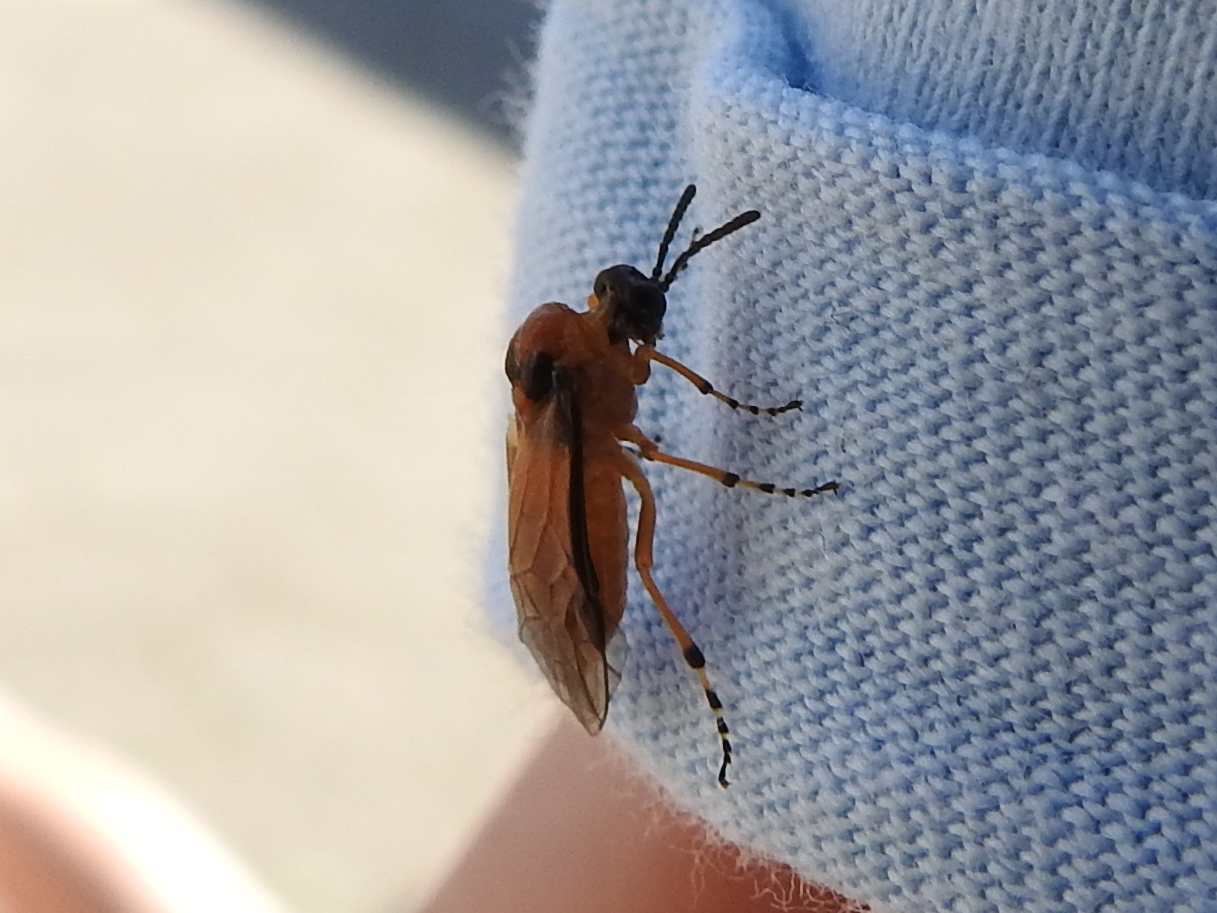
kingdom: Animalia
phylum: Arthropoda
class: Insecta
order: Hymenoptera
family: Tenthredinidae
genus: Athalia
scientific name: Athalia rosae
